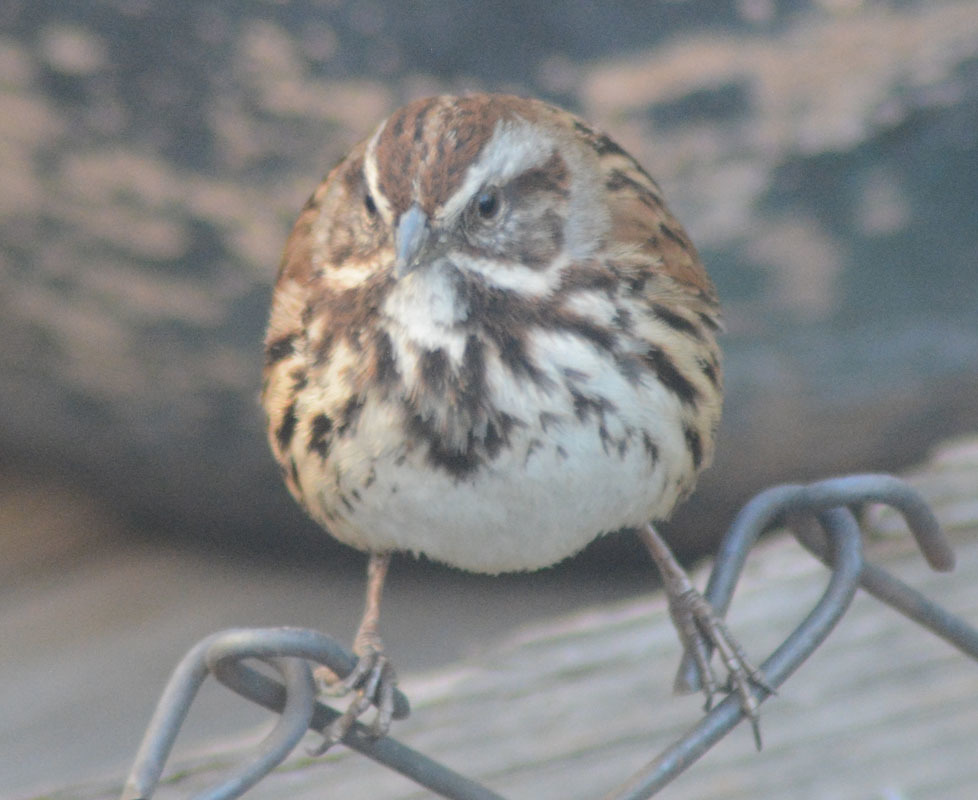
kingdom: Animalia
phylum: Chordata
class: Aves
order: Passeriformes
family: Passerellidae
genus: Melospiza
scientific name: Melospiza melodia
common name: Song sparrow
